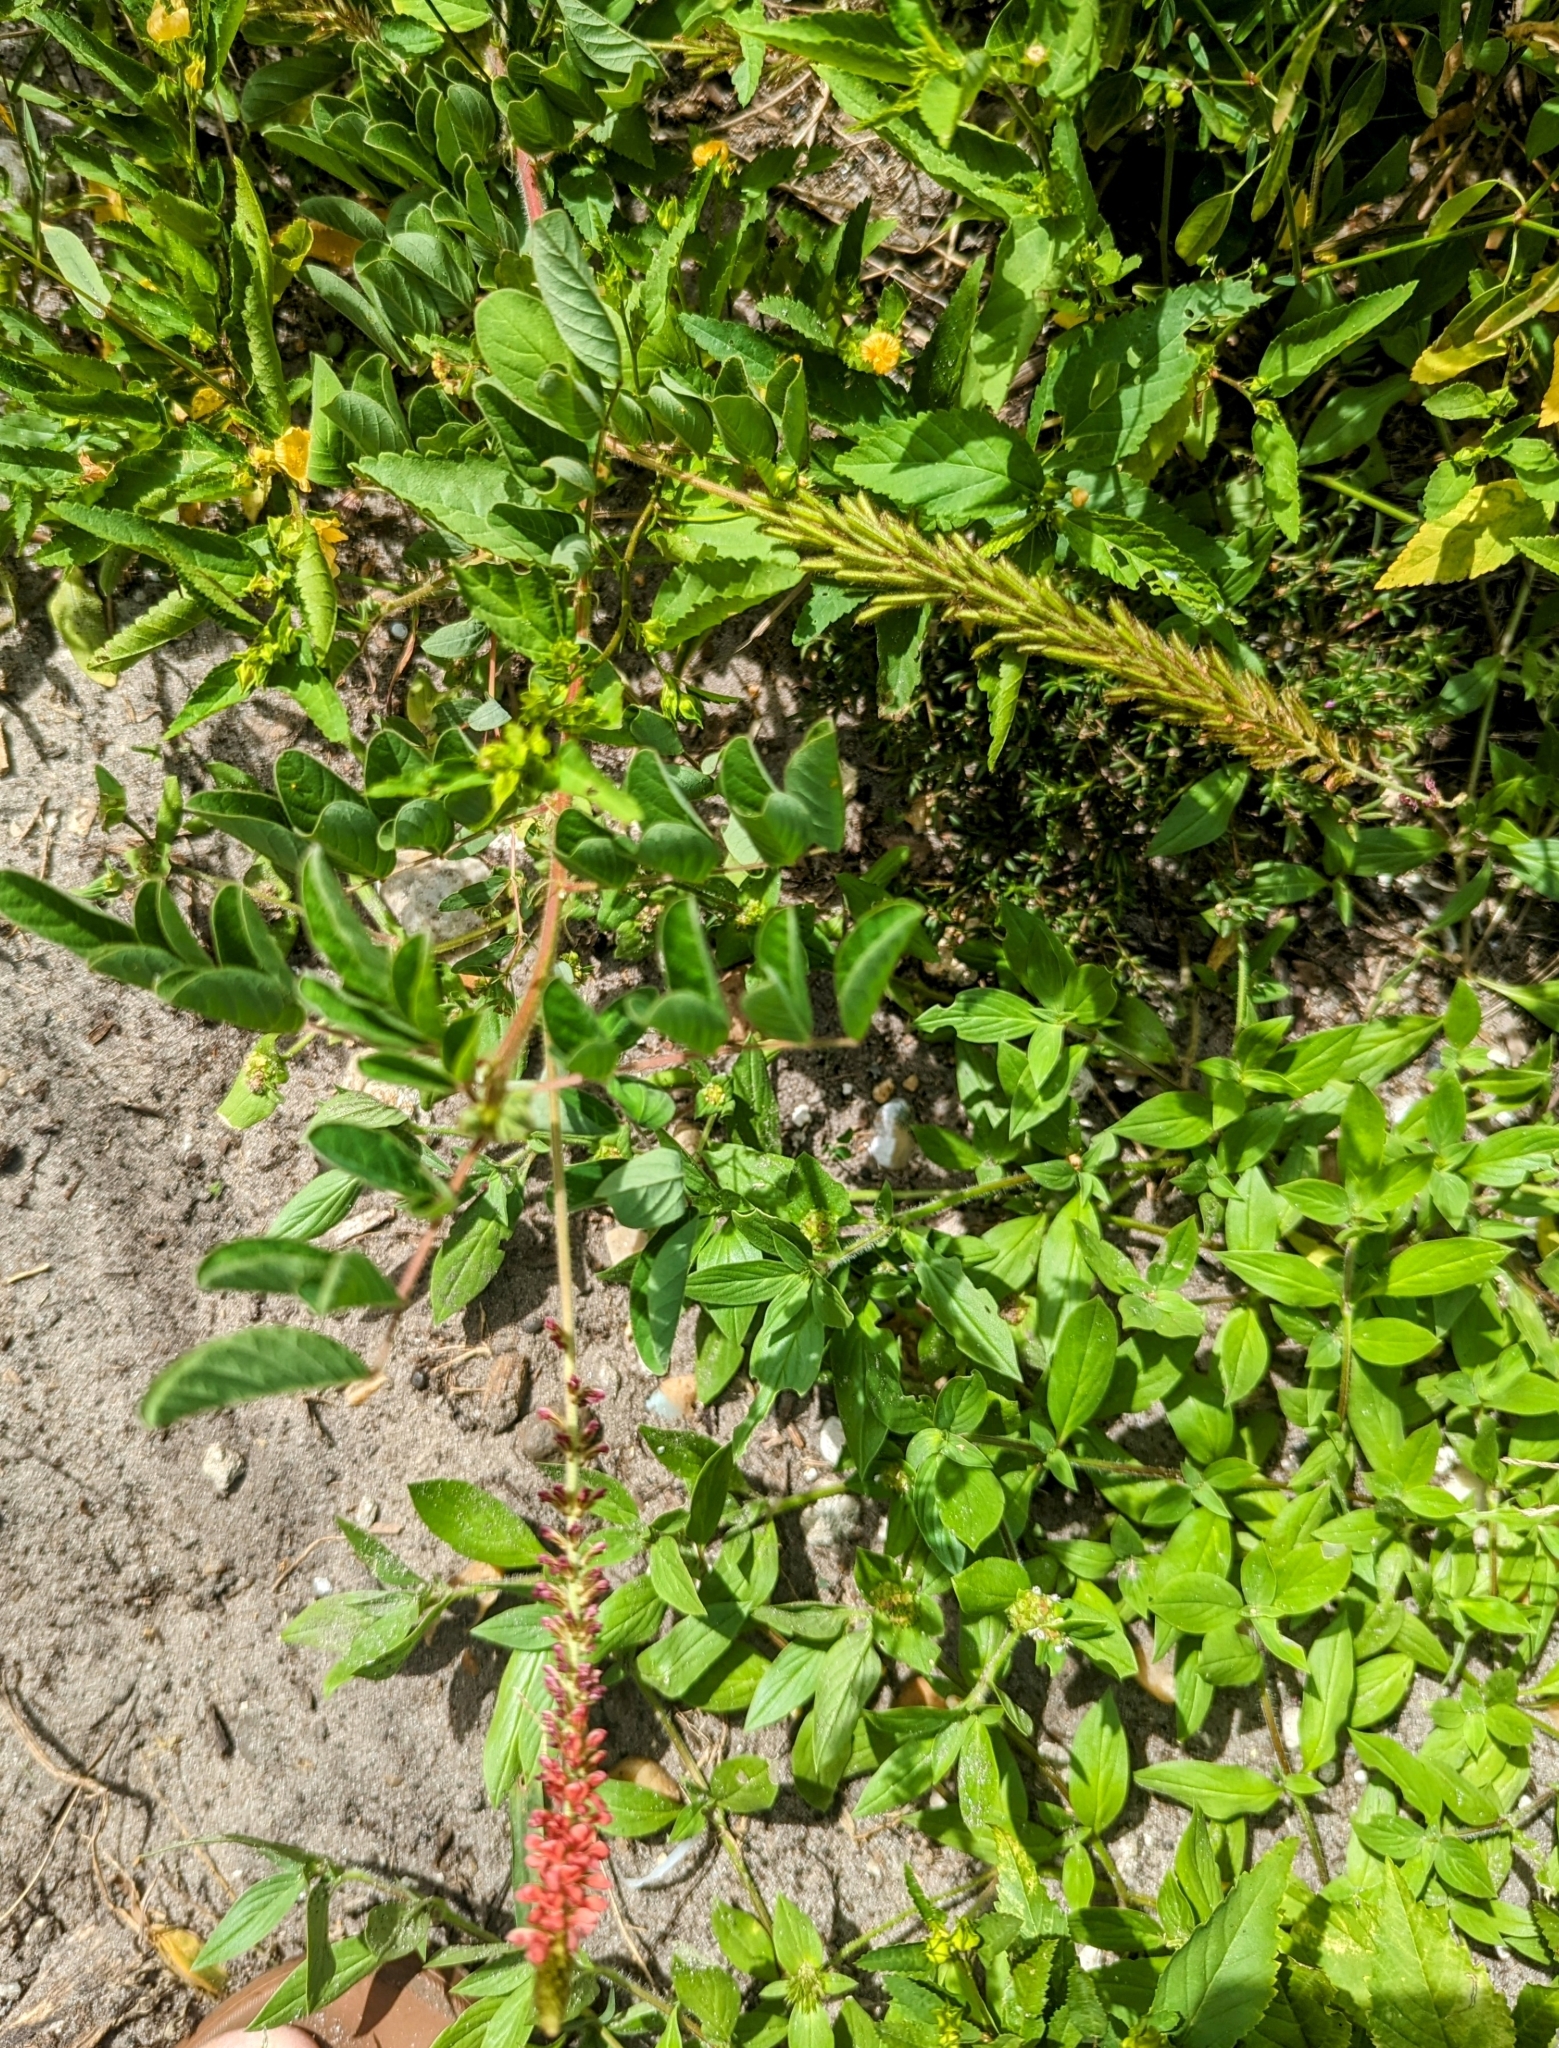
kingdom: Plantae
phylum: Tracheophyta
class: Magnoliopsida
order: Fabales
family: Fabaceae
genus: Indigofera
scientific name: Indigofera hirsuta
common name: Hairy indigo
